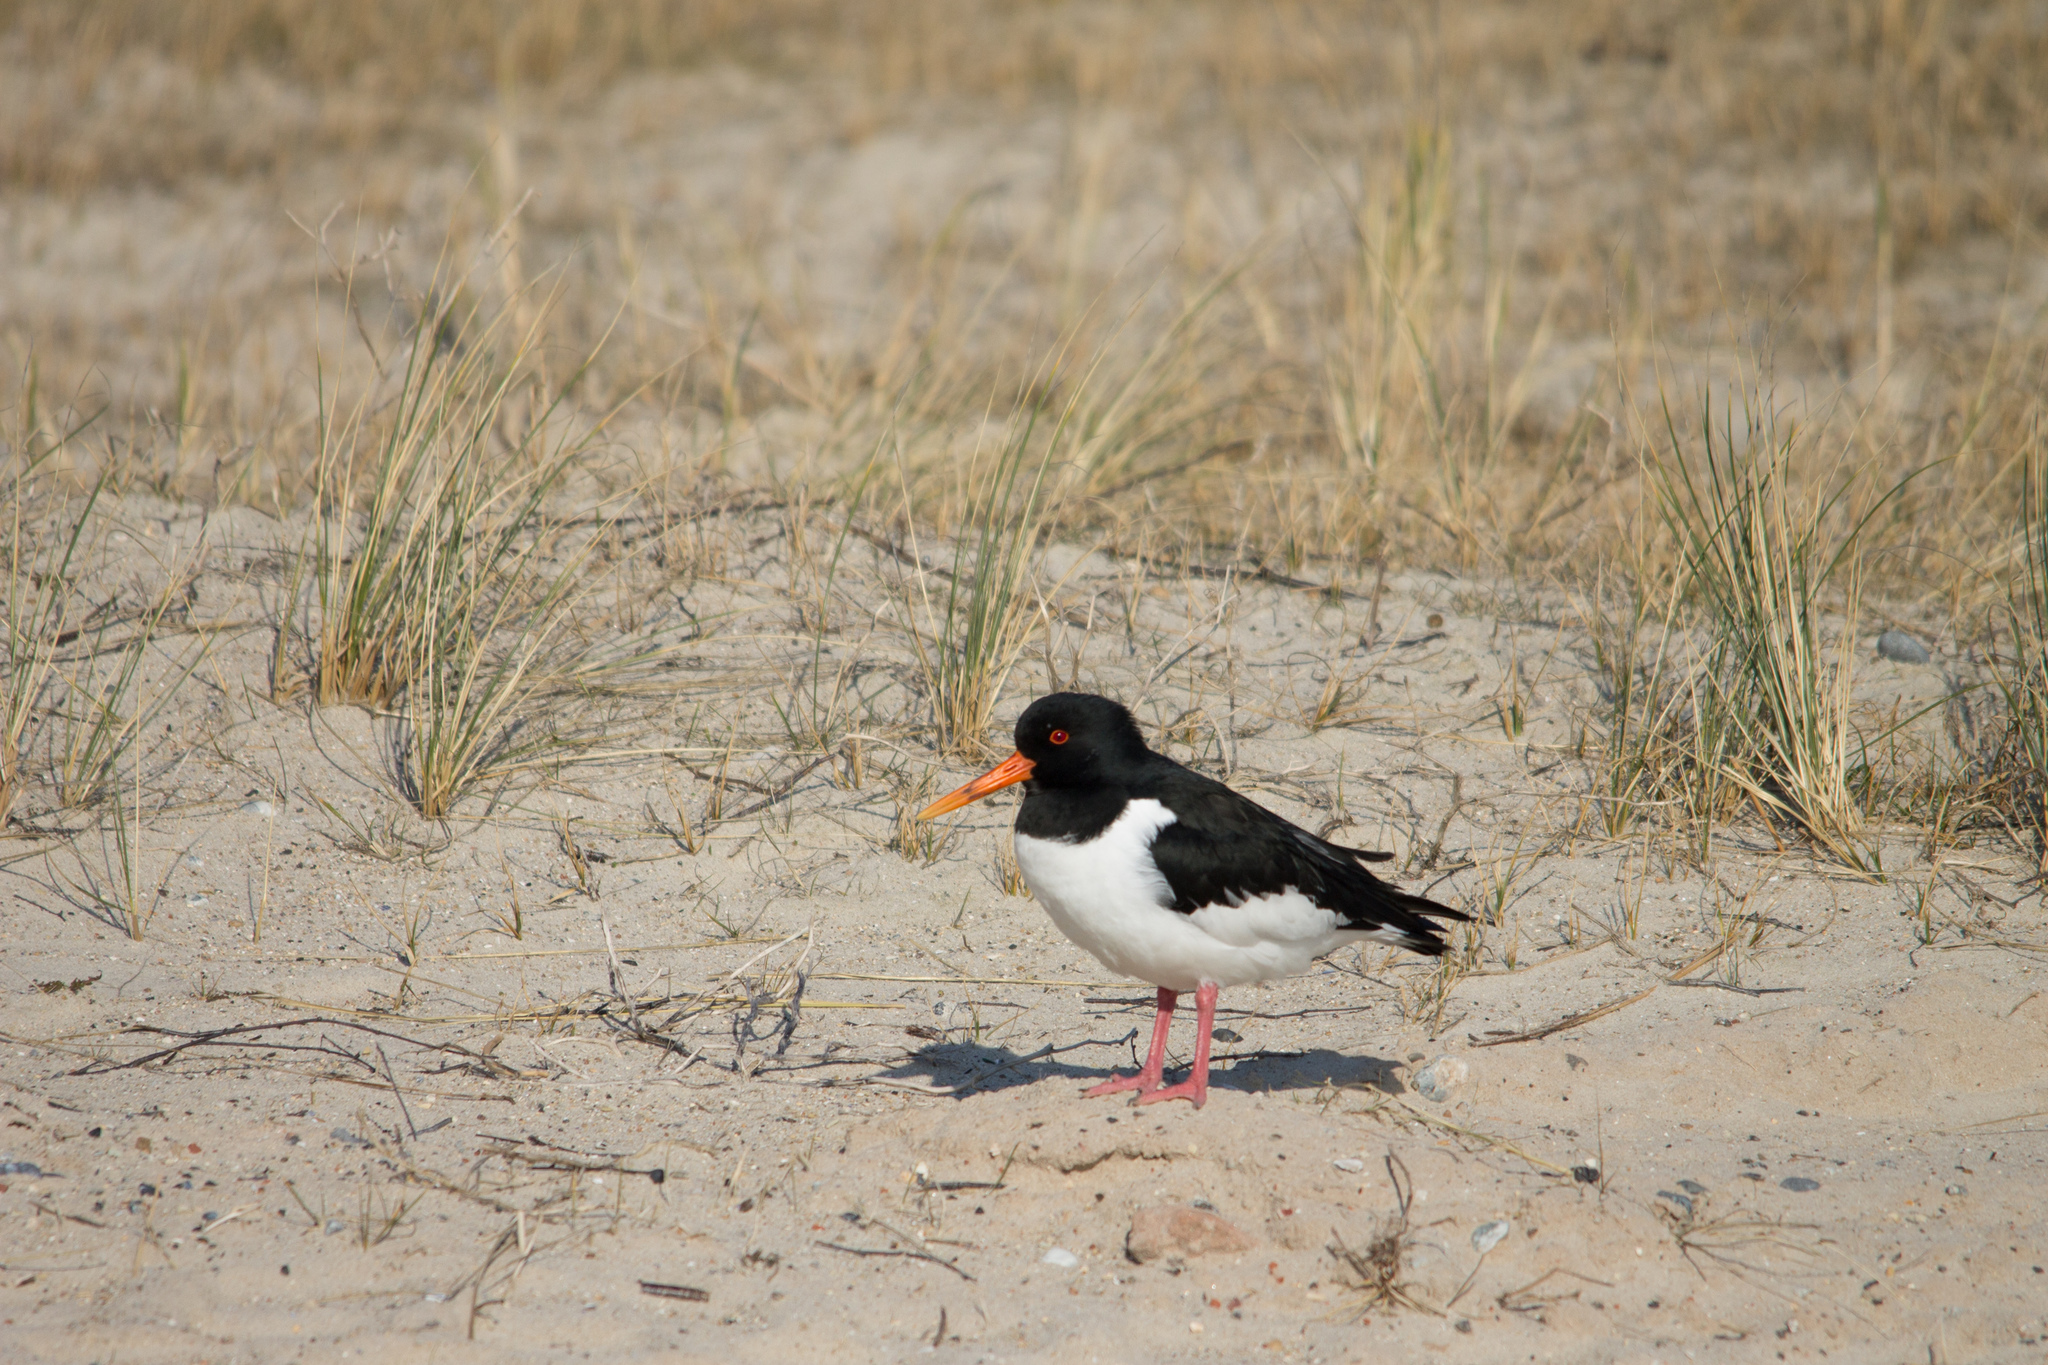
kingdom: Animalia
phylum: Chordata
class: Aves
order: Charadriiformes
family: Haematopodidae
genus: Haematopus
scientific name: Haematopus ostralegus
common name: Eurasian oystercatcher
